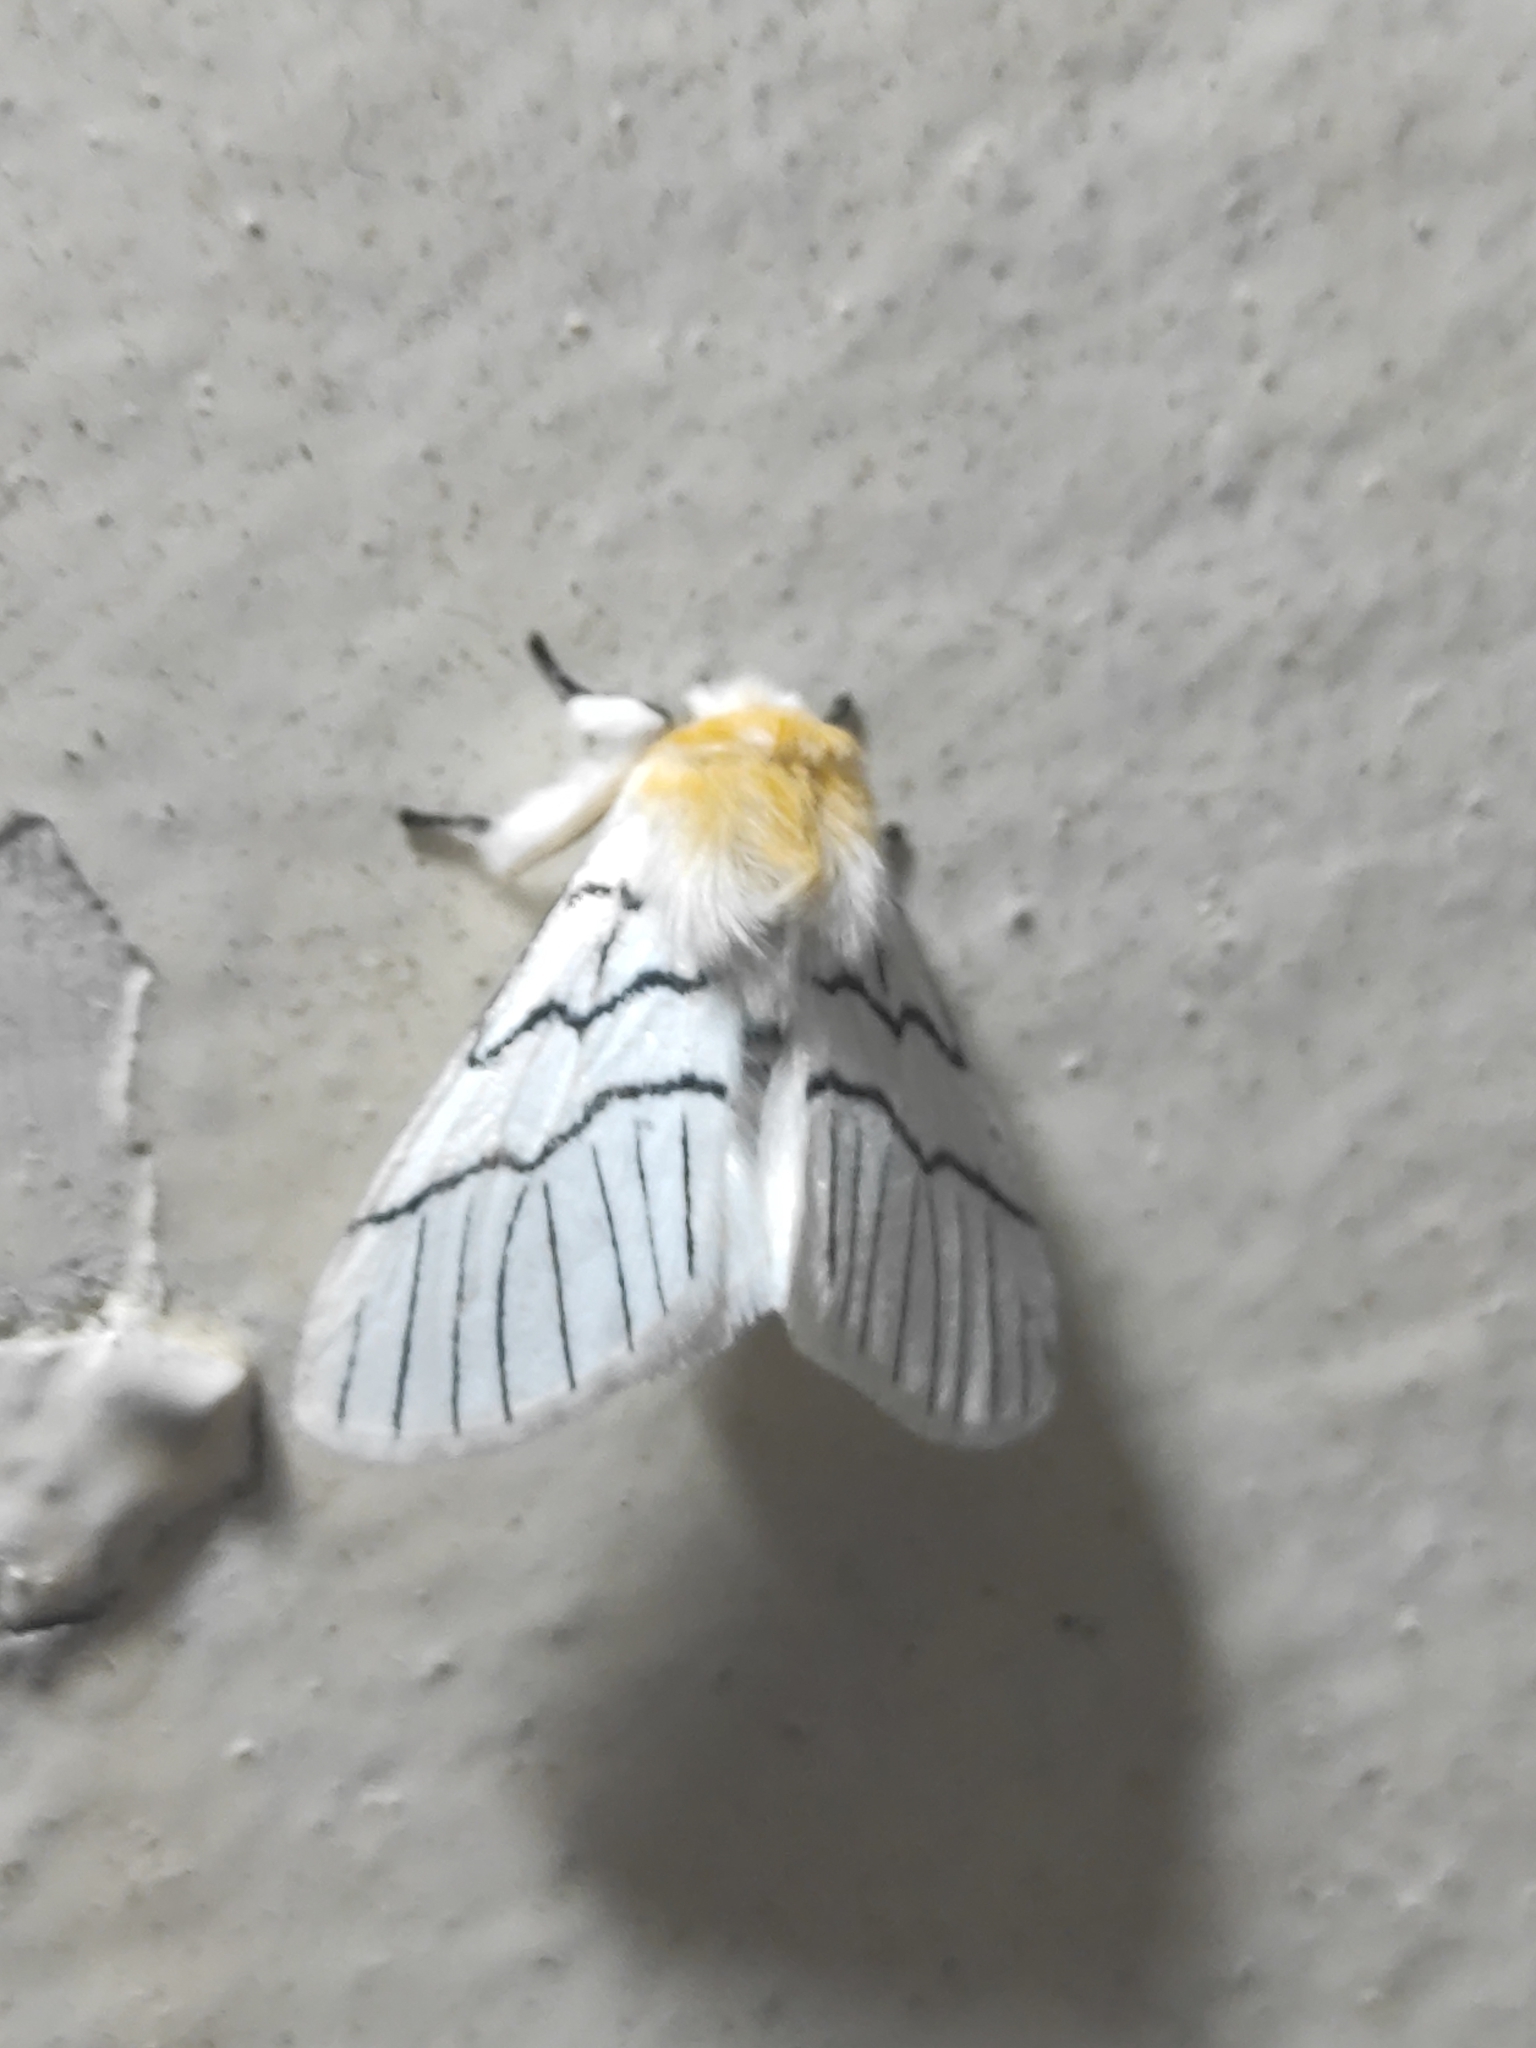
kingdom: Animalia
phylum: Arthropoda
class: Insecta
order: Lepidoptera
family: Notodontidae
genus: Oligoclona
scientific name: Oligoclona chrysolopha
